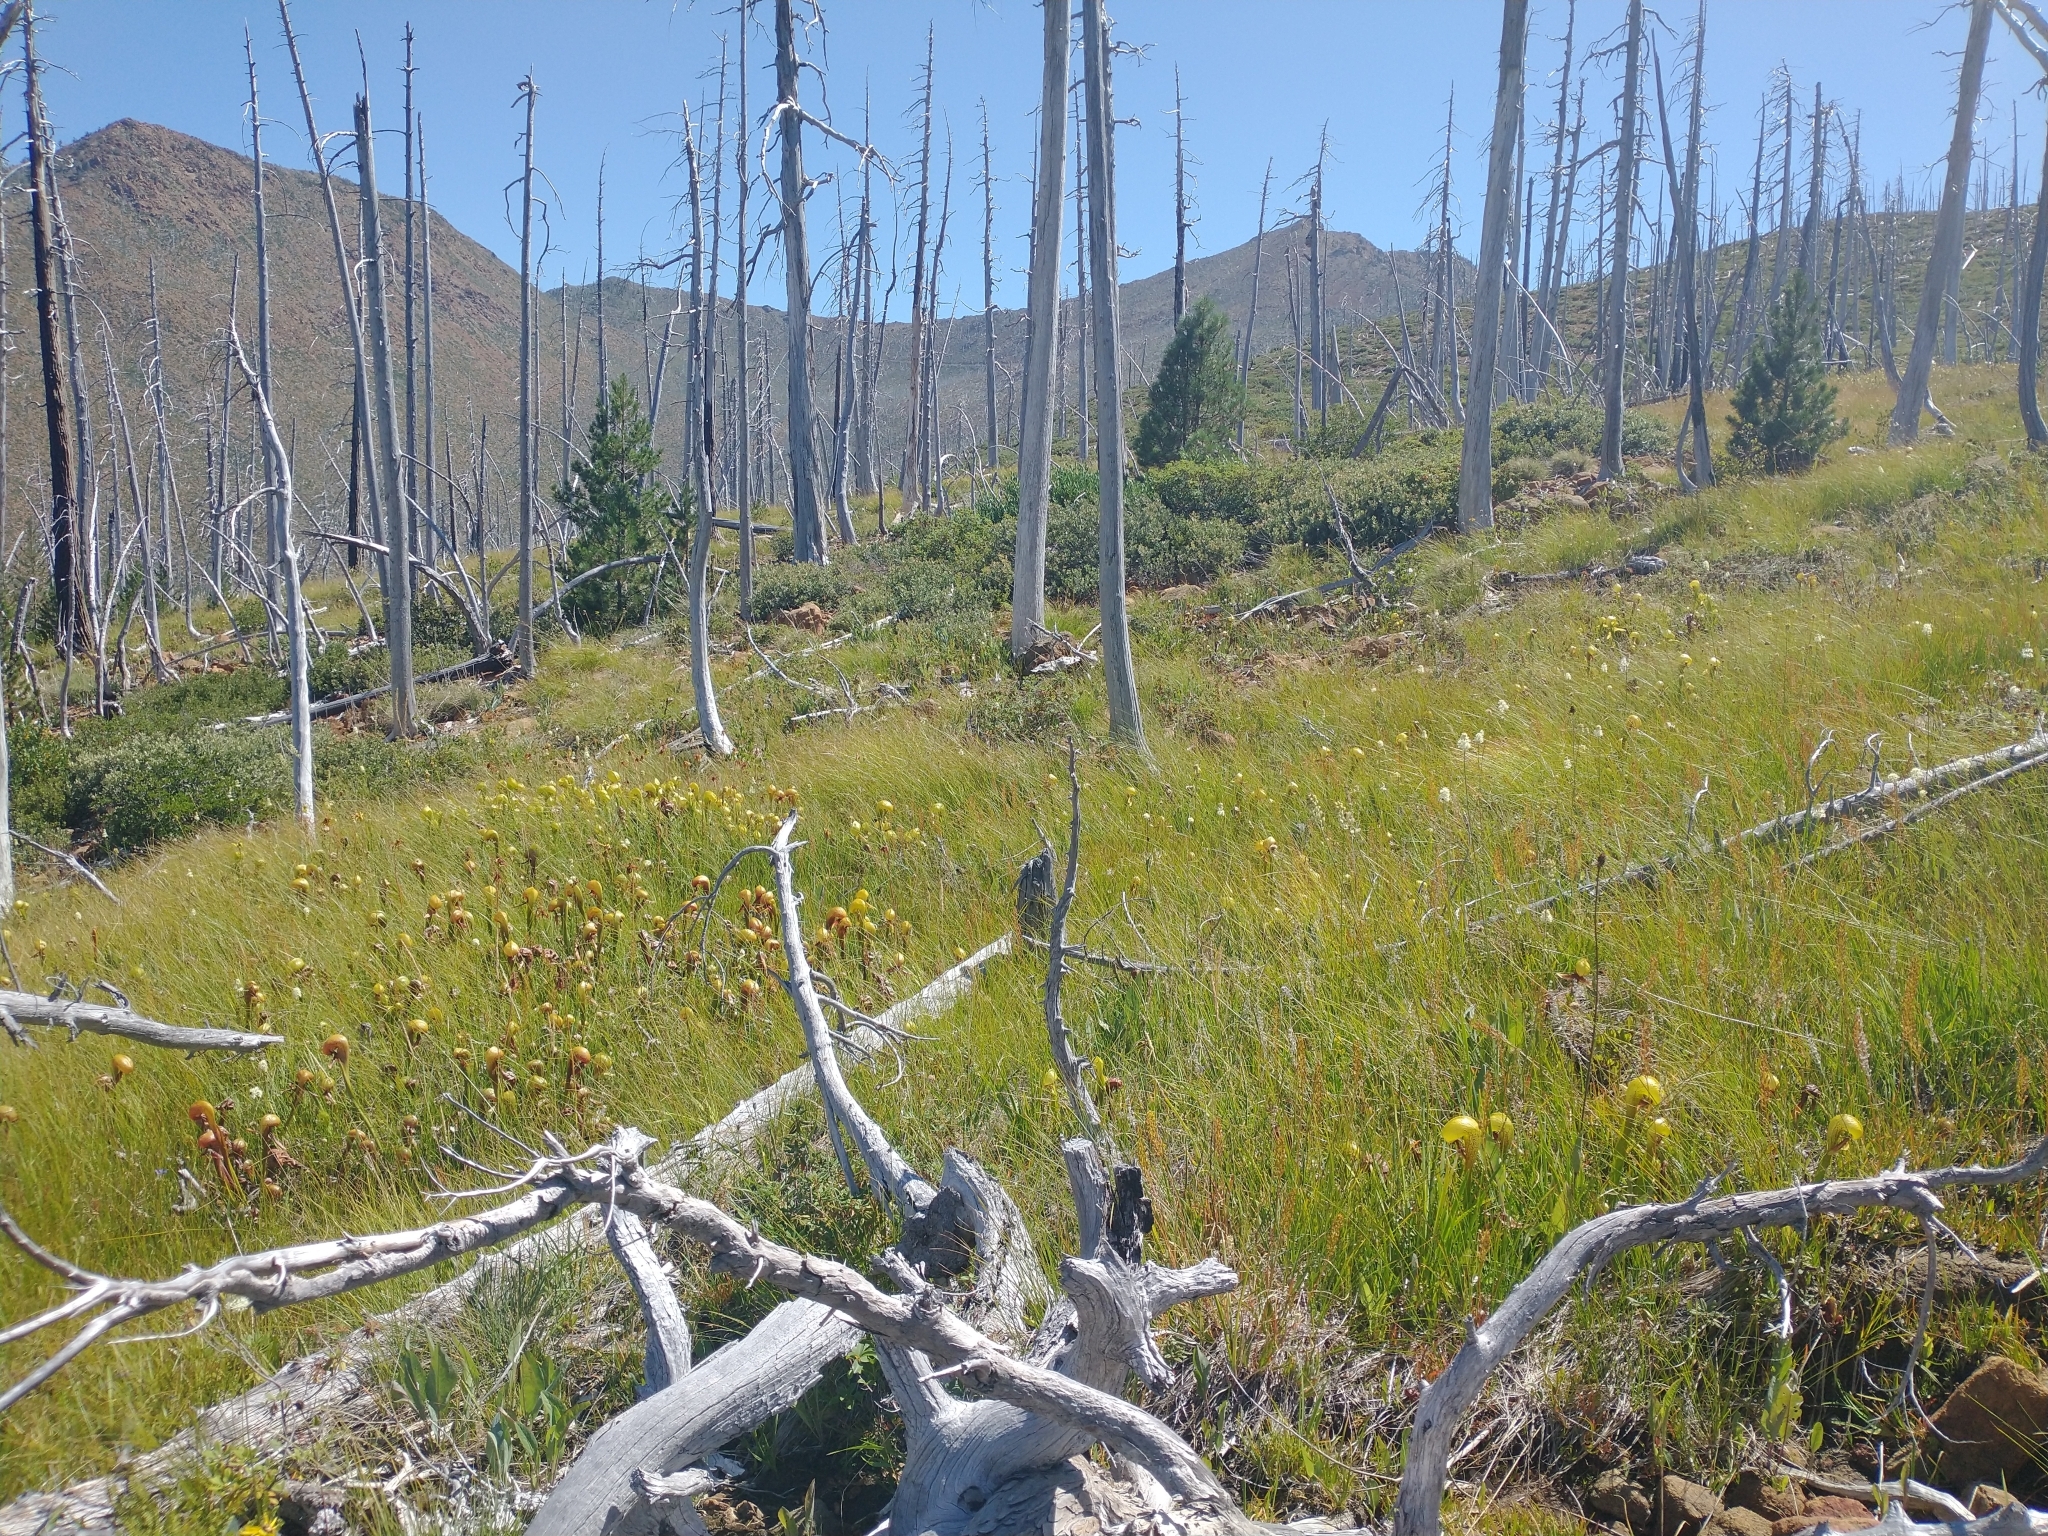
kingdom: Plantae
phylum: Tracheophyta
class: Magnoliopsida
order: Ericales
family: Sarraceniaceae
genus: Darlingtonia
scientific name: Darlingtonia californica
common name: California pitcher plant
